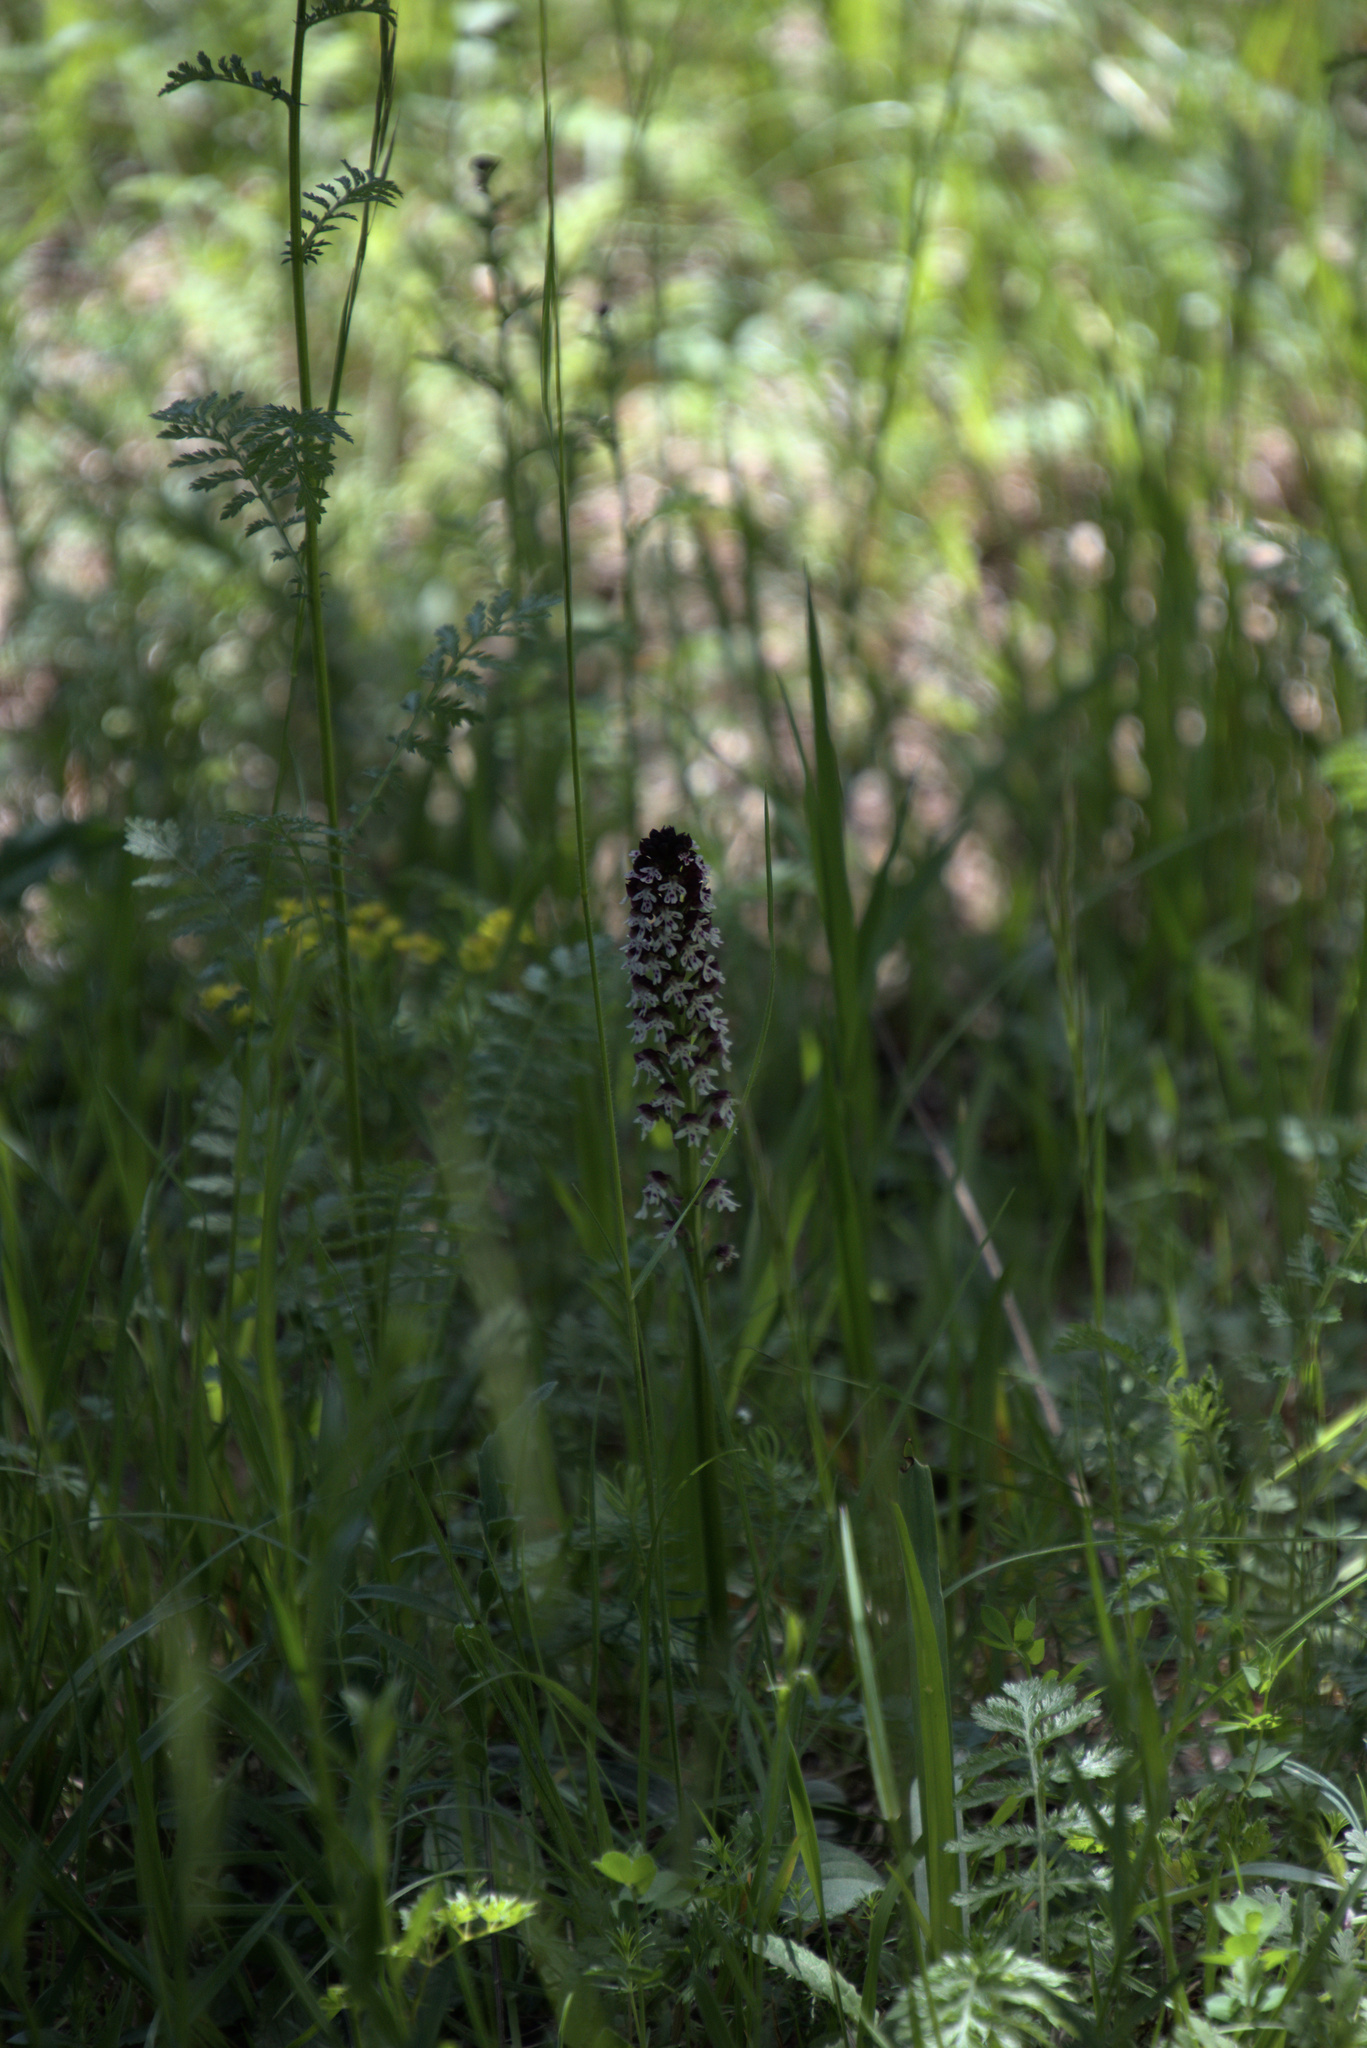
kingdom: Plantae
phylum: Tracheophyta
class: Liliopsida
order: Asparagales
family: Orchidaceae
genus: Neotinea
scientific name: Neotinea ustulata
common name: Burnt orchid
